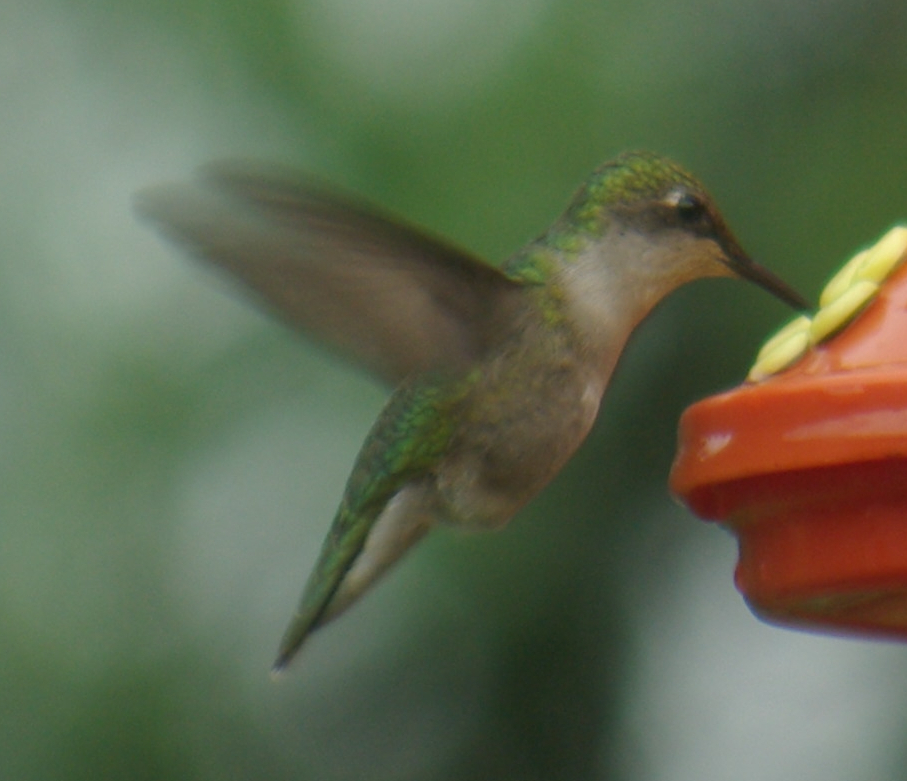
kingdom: Animalia
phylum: Chordata
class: Aves
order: Apodiformes
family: Trochilidae
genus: Archilochus
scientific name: Archilochus colubris
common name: Ruby-throated hummingbird
